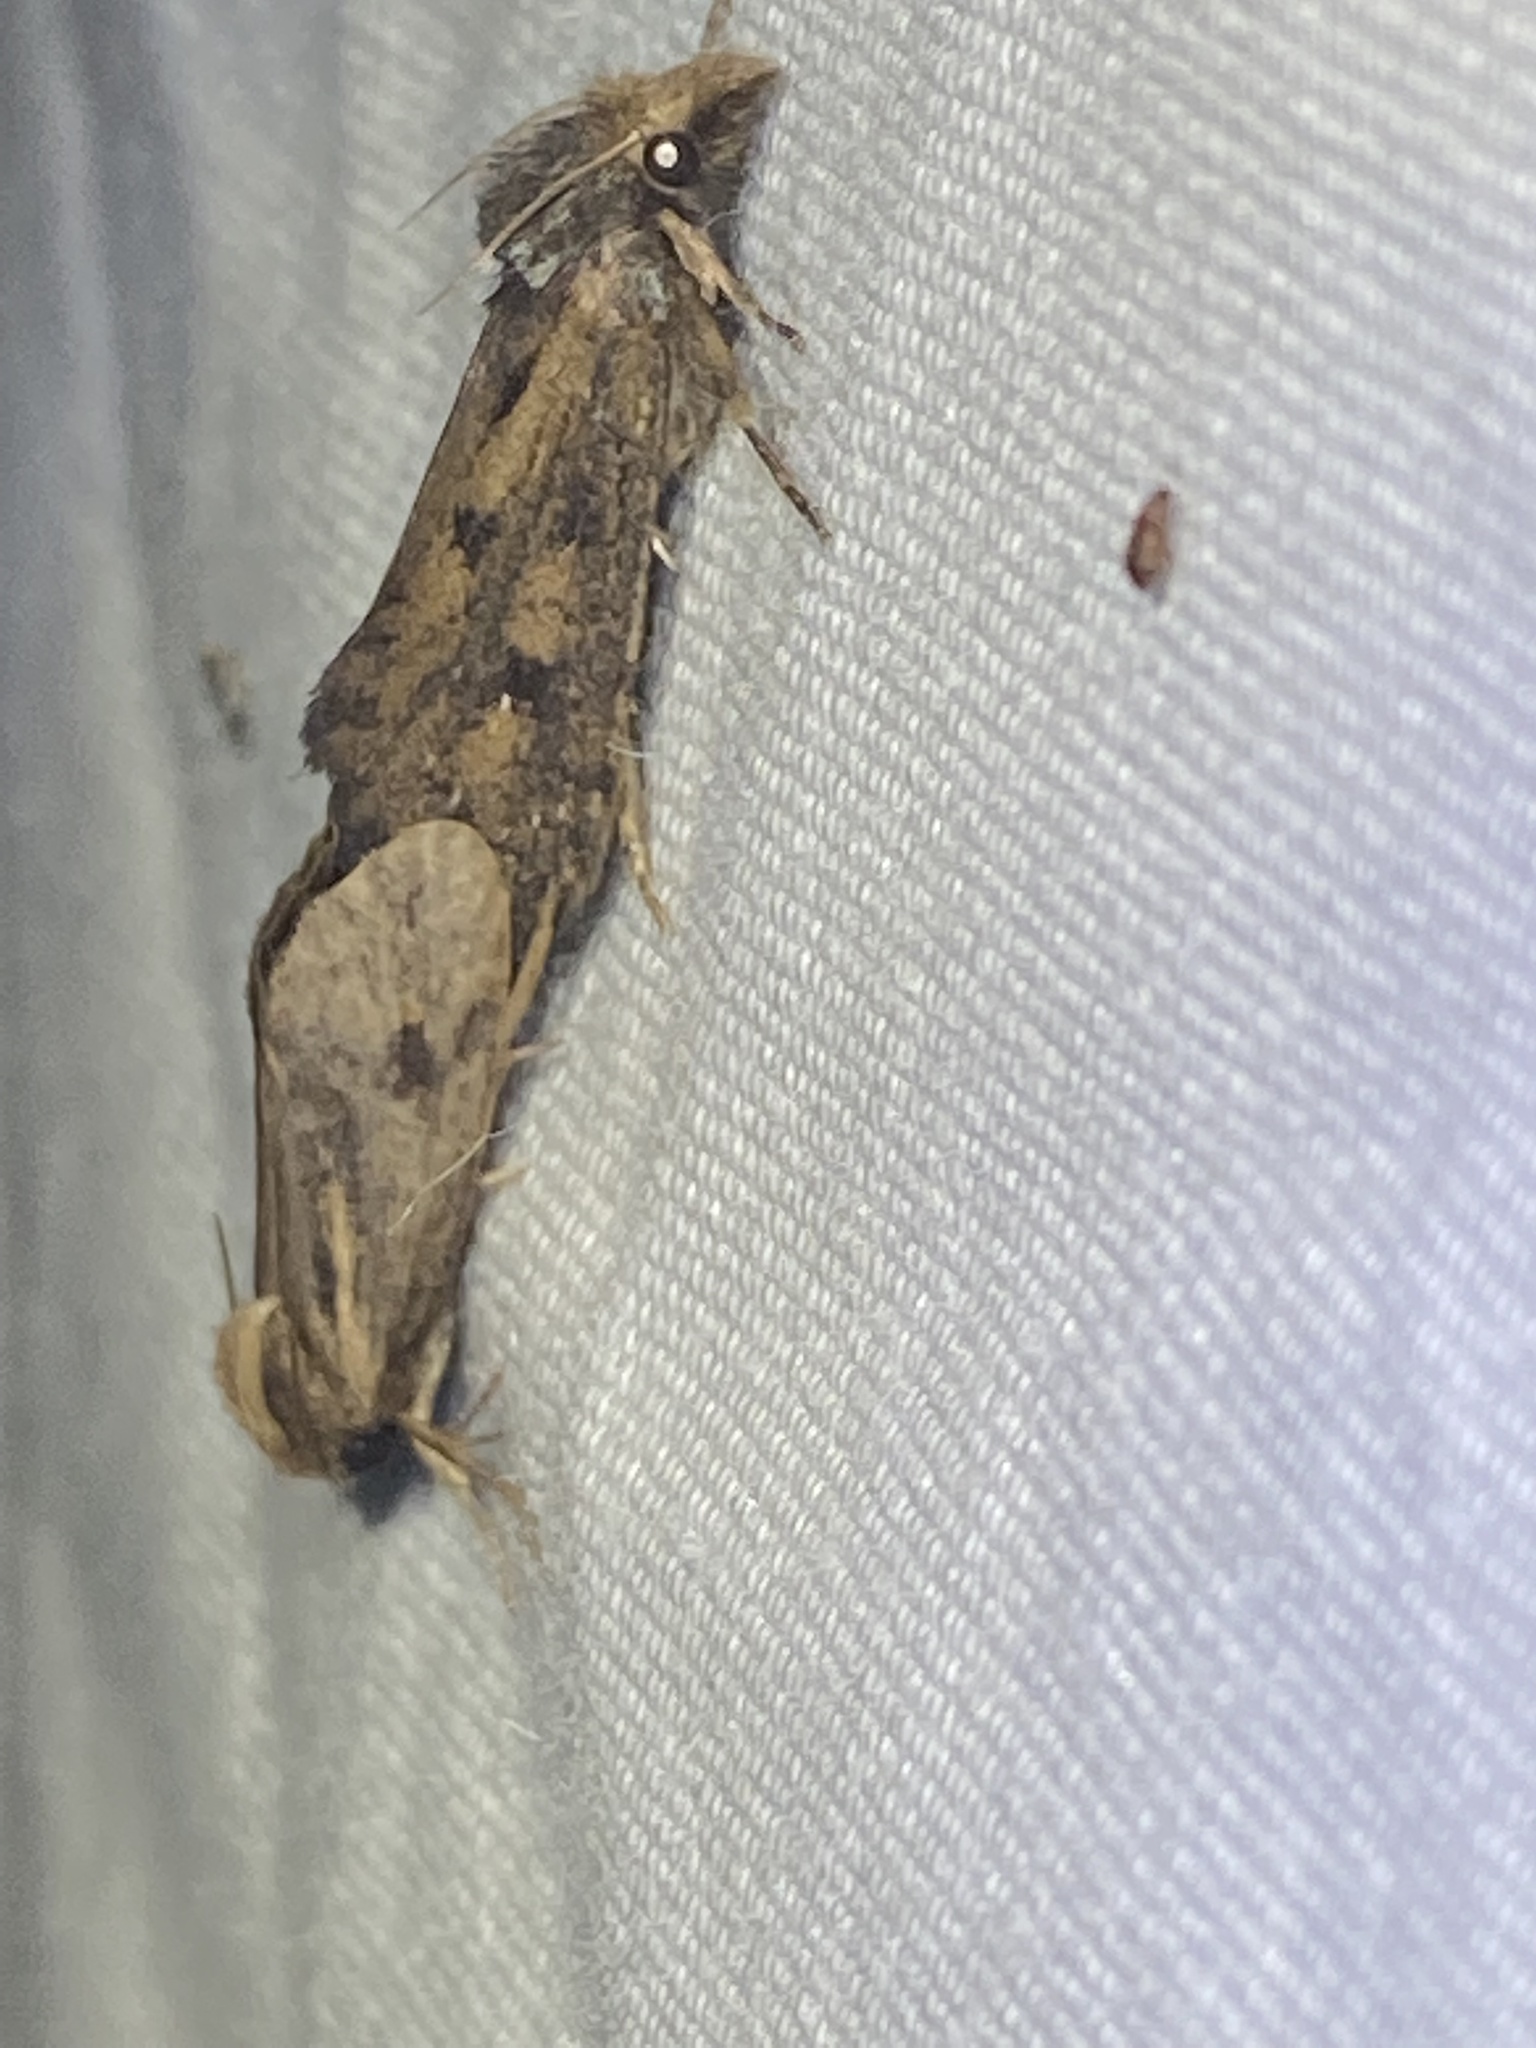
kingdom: Animalia
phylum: Arthropoda
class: Insecta
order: Lepidoptera
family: Tineidae
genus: Acrolophus
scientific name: Acrolophus popeanella
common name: Clemens' grass tubeworm moth
